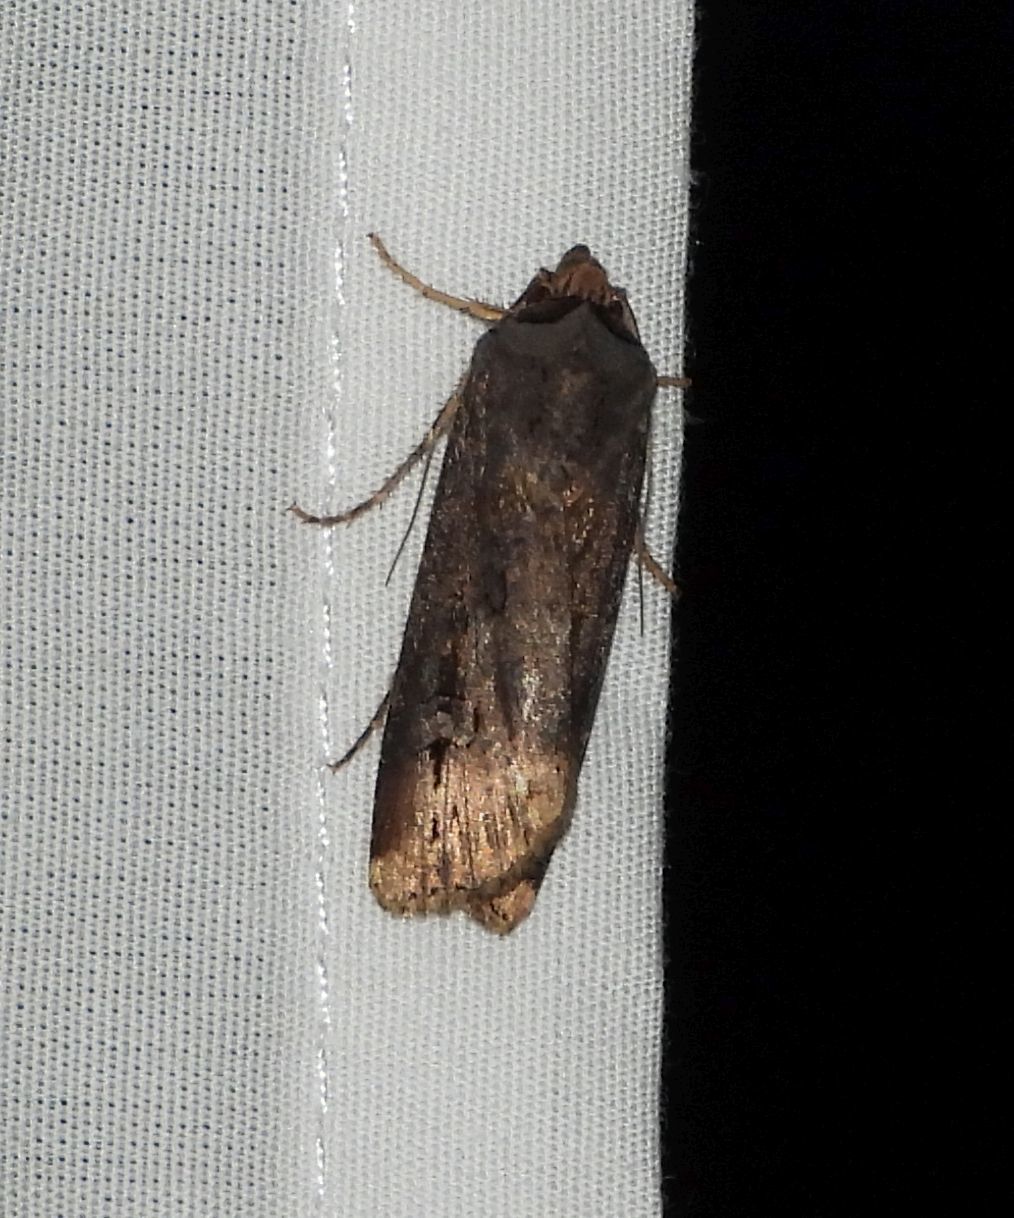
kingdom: Animalia
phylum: Arthropoda
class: Insecta
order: Lepidoptera
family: Noctuidae
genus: Agrotis
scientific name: Agrotis ipsilon
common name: Dark sword-grass
